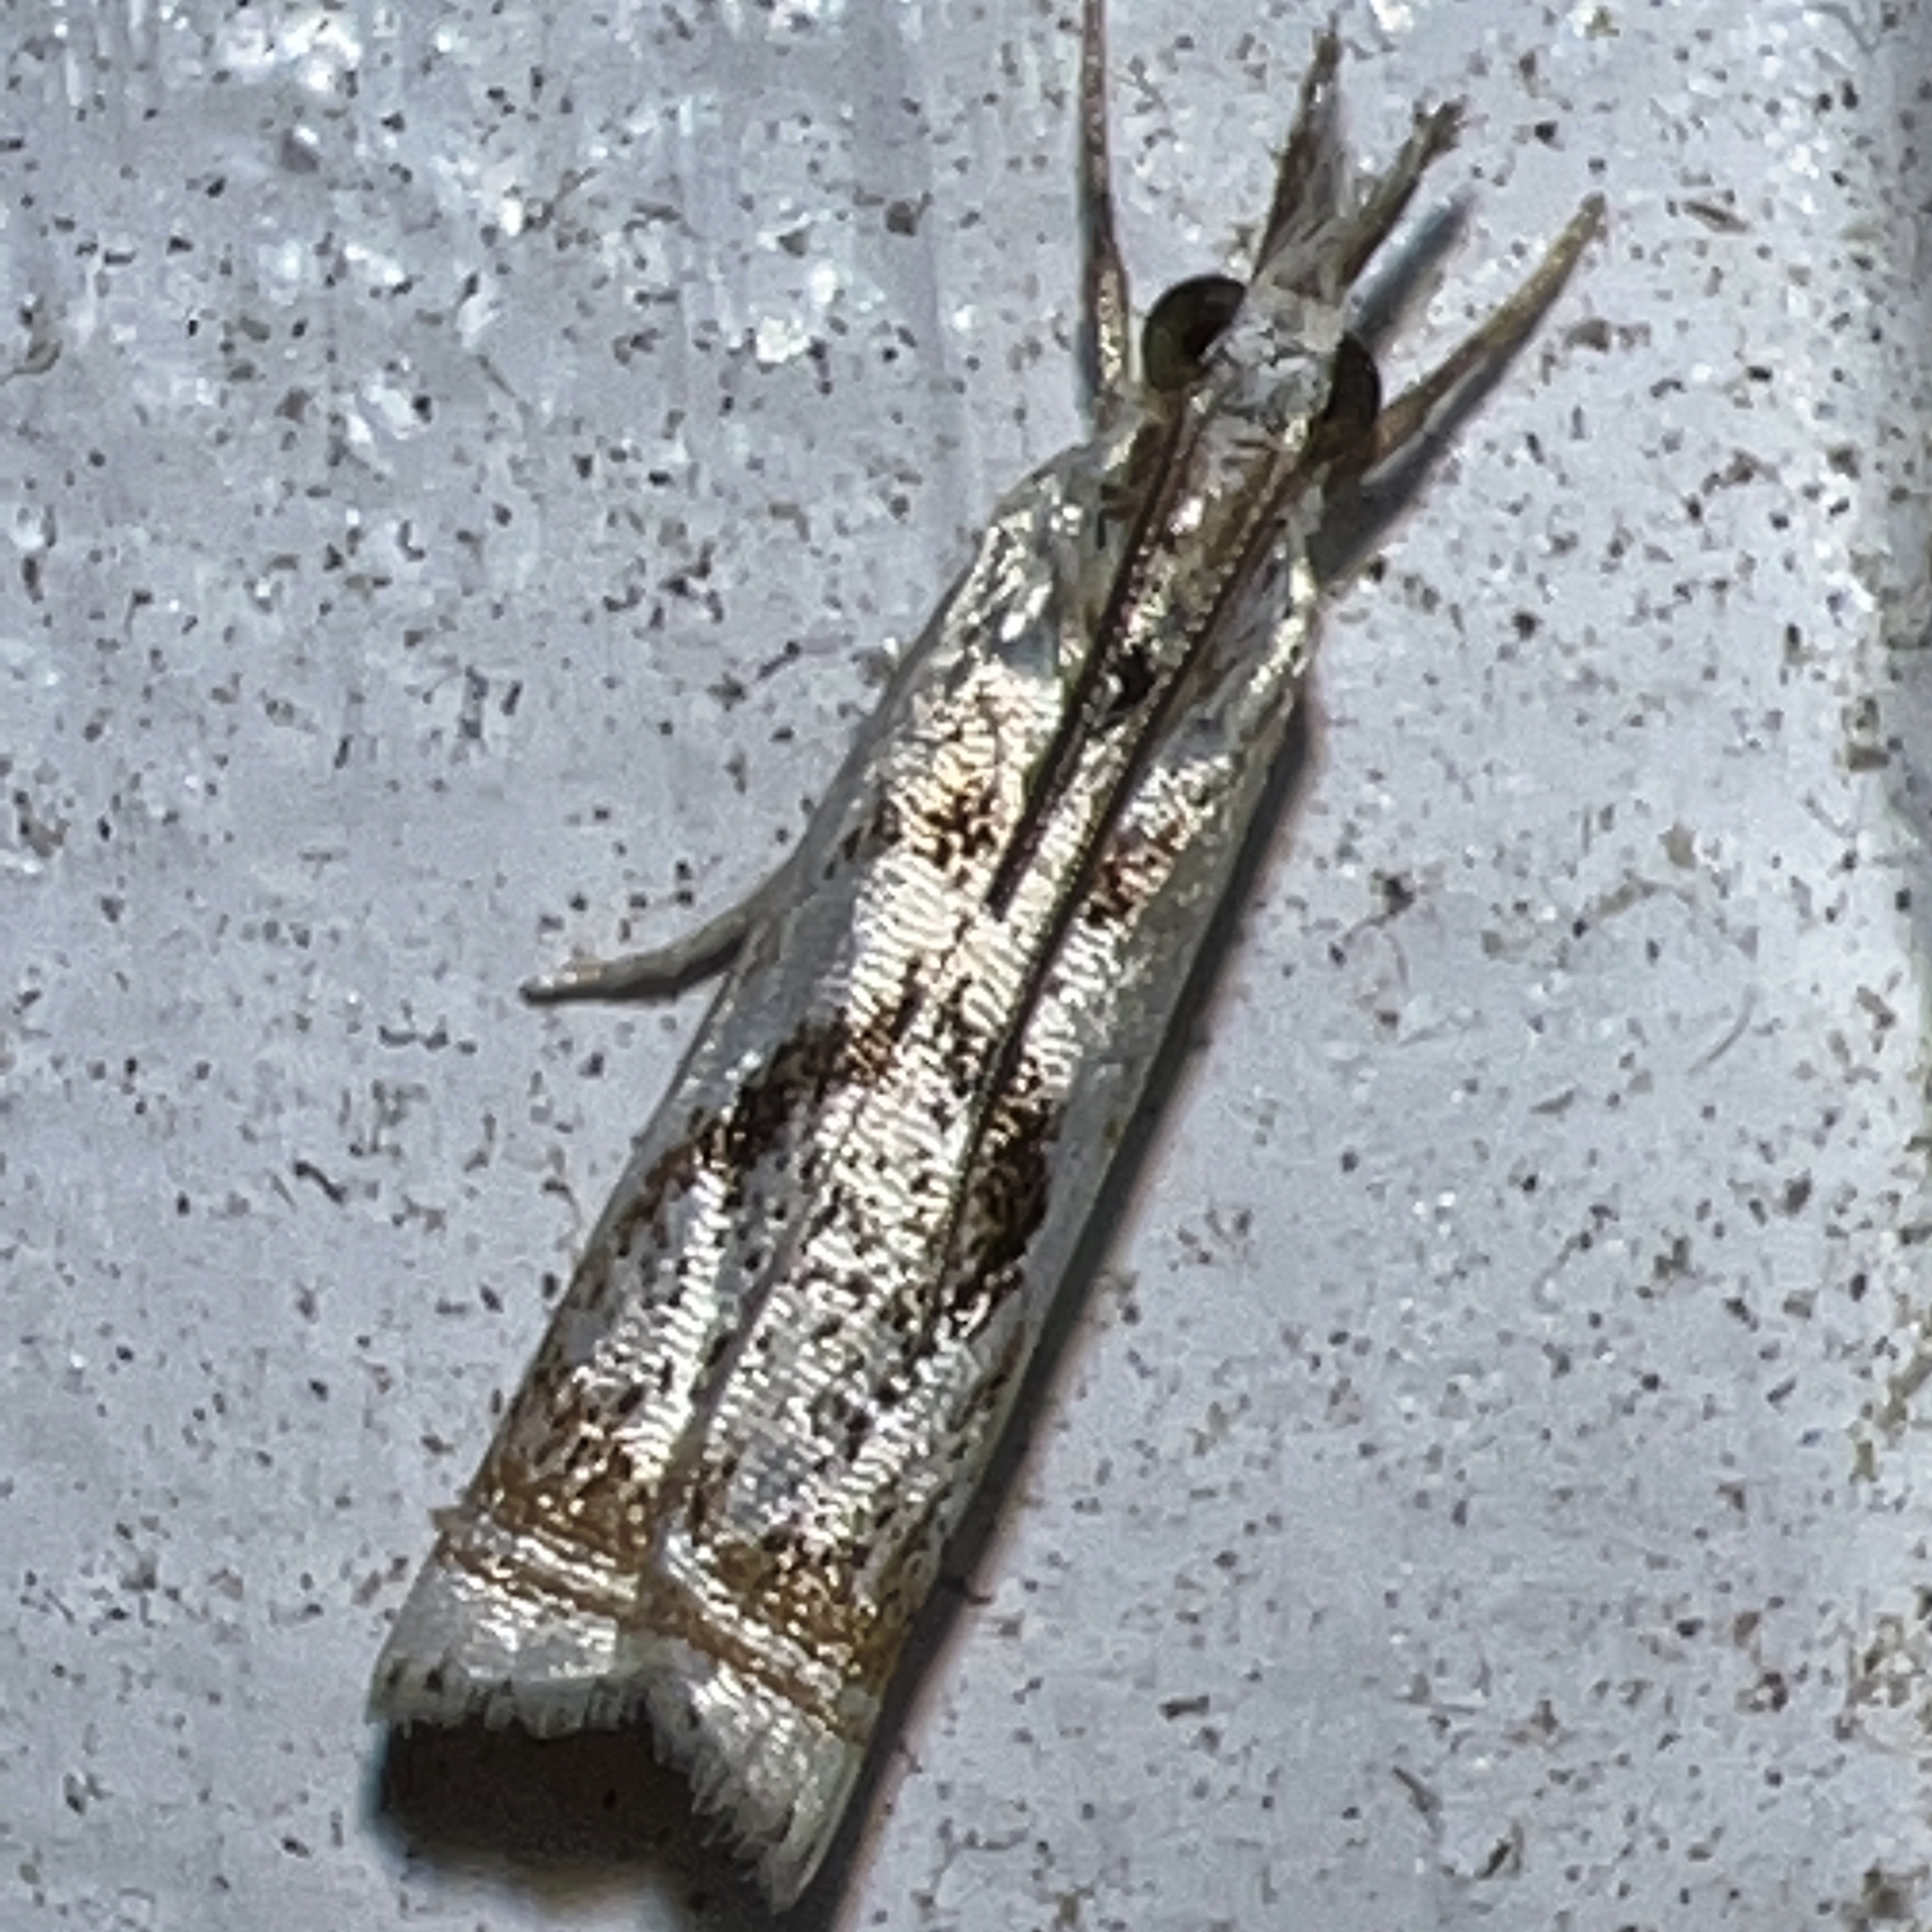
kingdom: Animalia
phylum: Arthropoda
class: Insecta
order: Lepidoptera
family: Crambidae
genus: Microcrambus
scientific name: Microcrambus elegans
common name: Elegant grass-veneer
